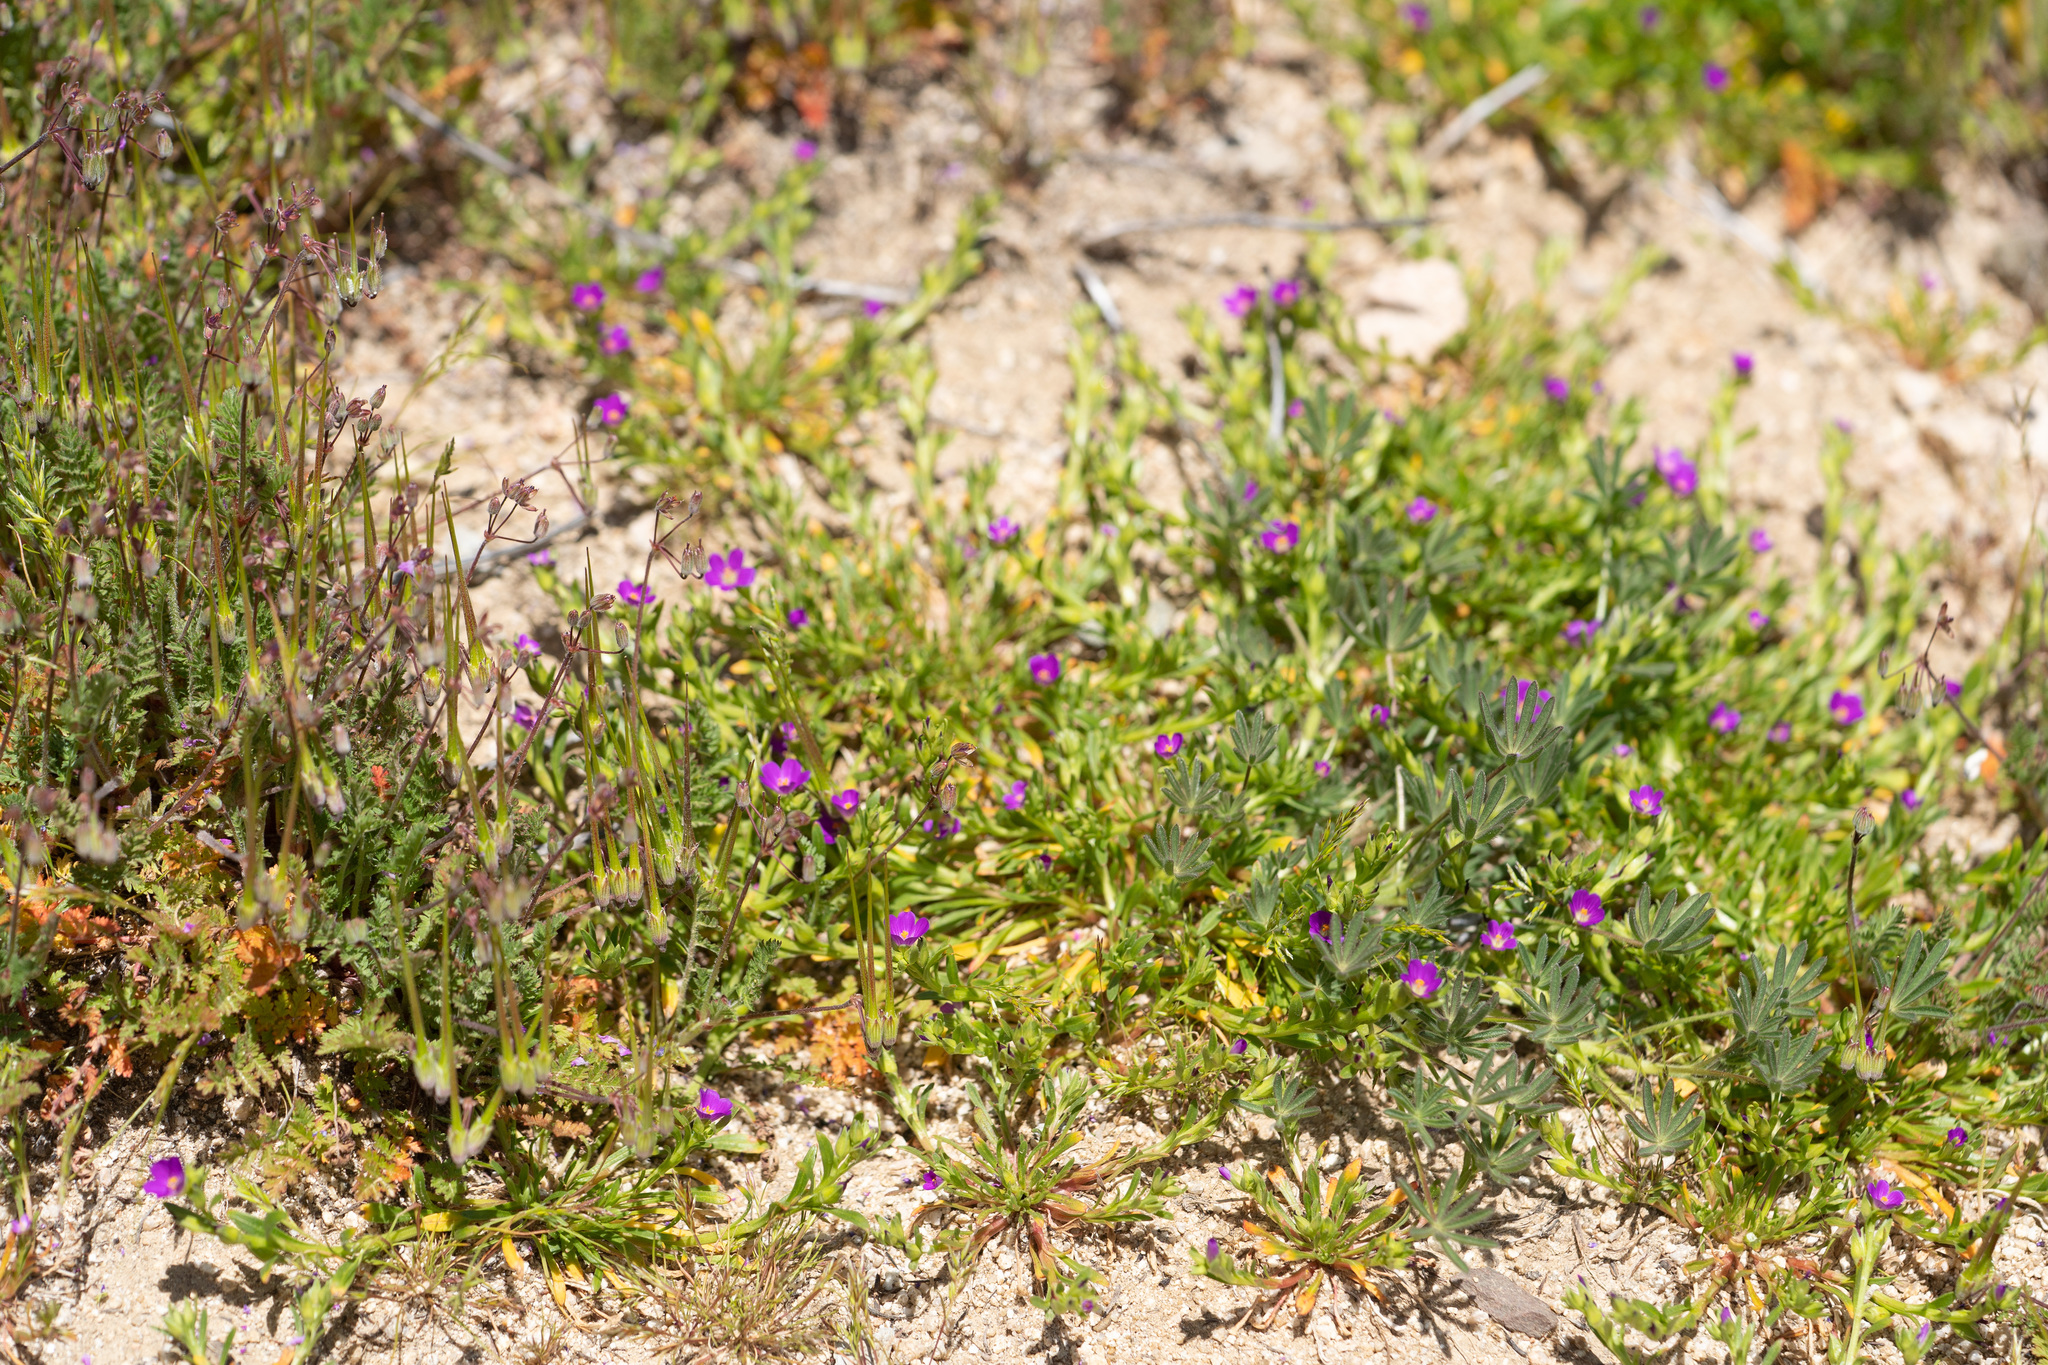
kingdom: Plantae
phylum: Tracheophyta
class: Magnoliopsida
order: Caryophyllales
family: Montiaceae
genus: Calandrinia
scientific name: Calandrinia menziesii
